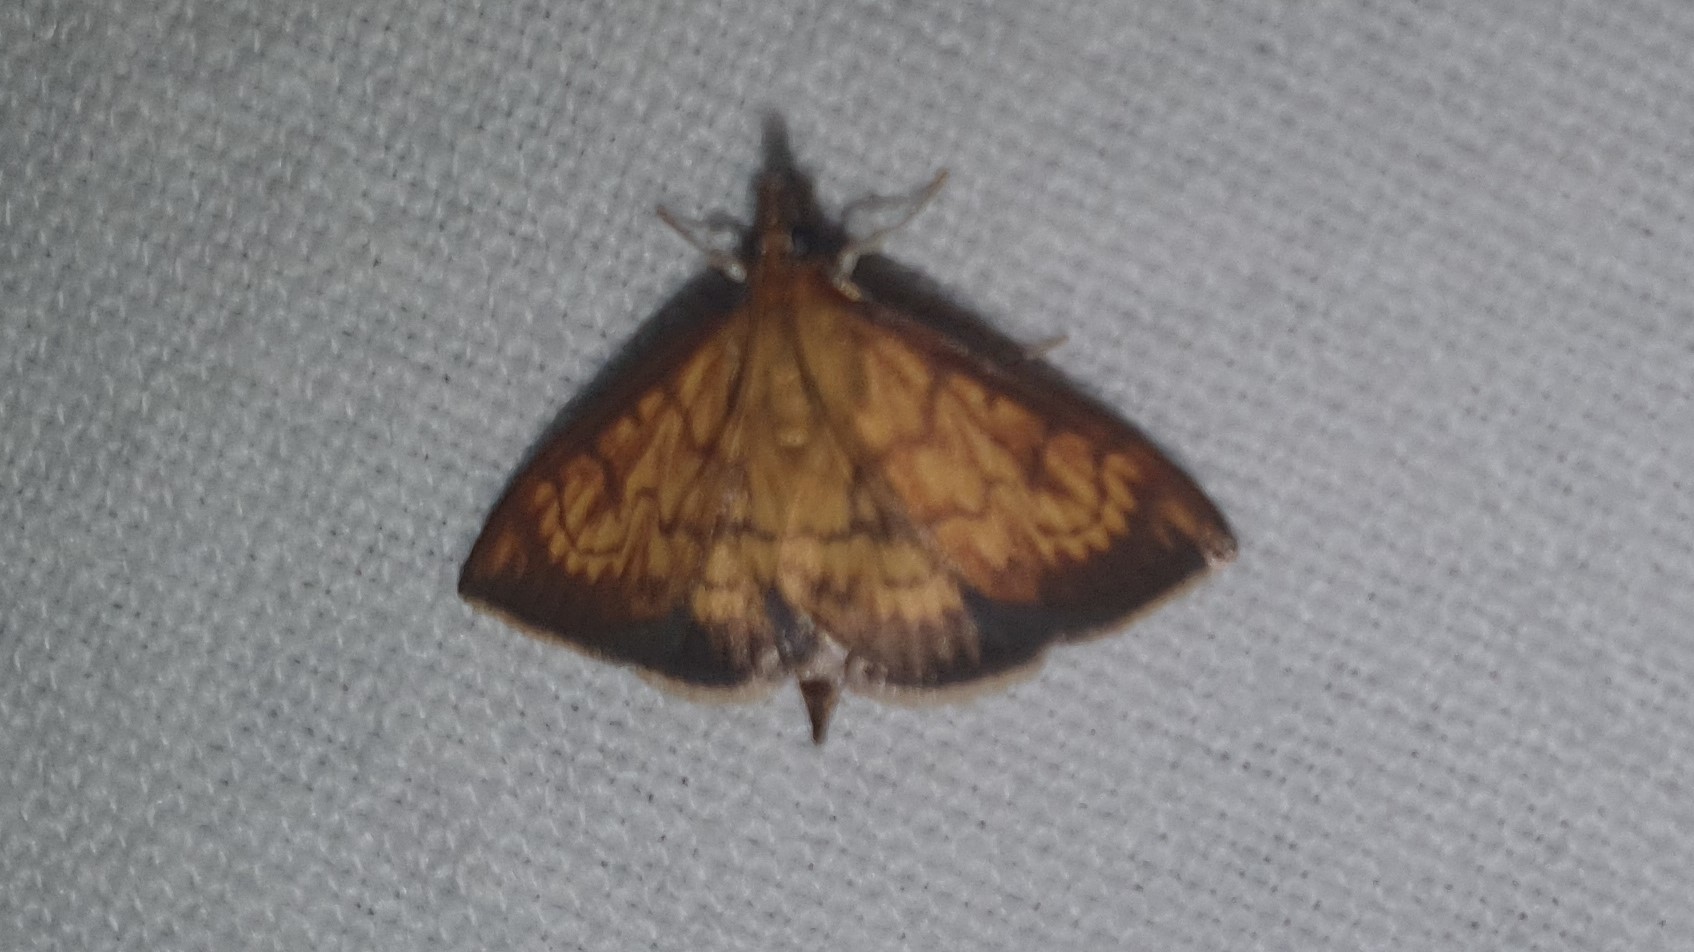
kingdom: Animalia
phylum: Arthropoda
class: Insecta
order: Lepidoptera
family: Crambidae
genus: Ecpyrrhorrhoe
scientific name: Ecpyrrhorrhoe rubiginalis
